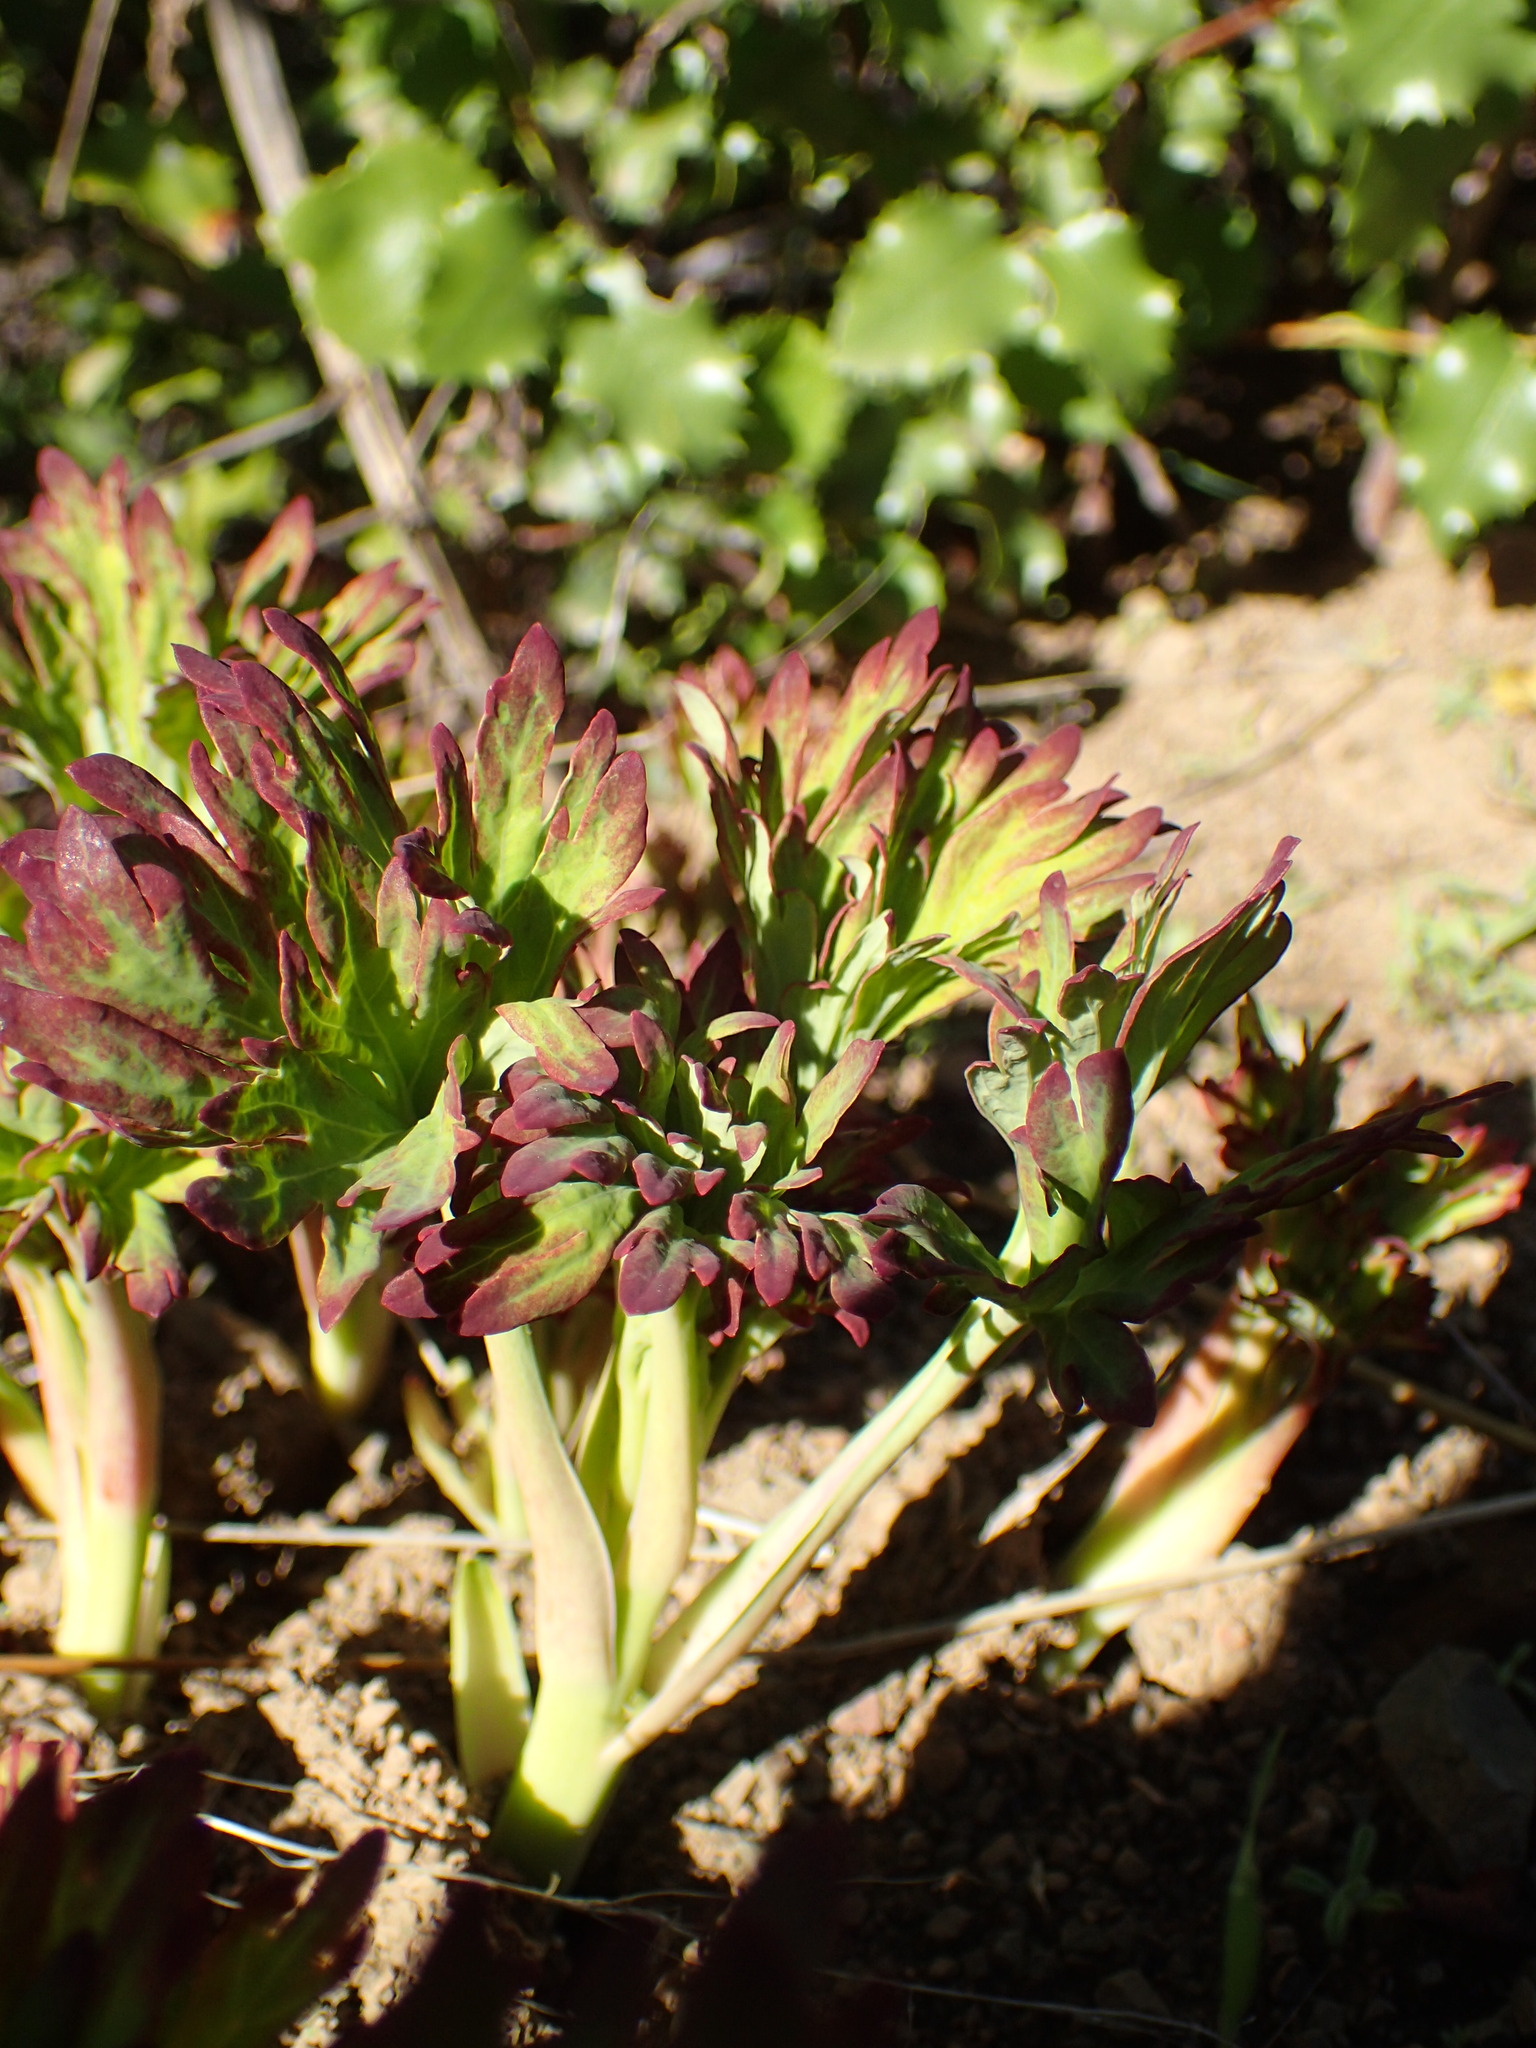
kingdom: Plantae
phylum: Tracheophyta
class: Magnoliopsida
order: Saxifragales
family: Paeoniaceae
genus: Paeonia
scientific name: Paeonia californica
